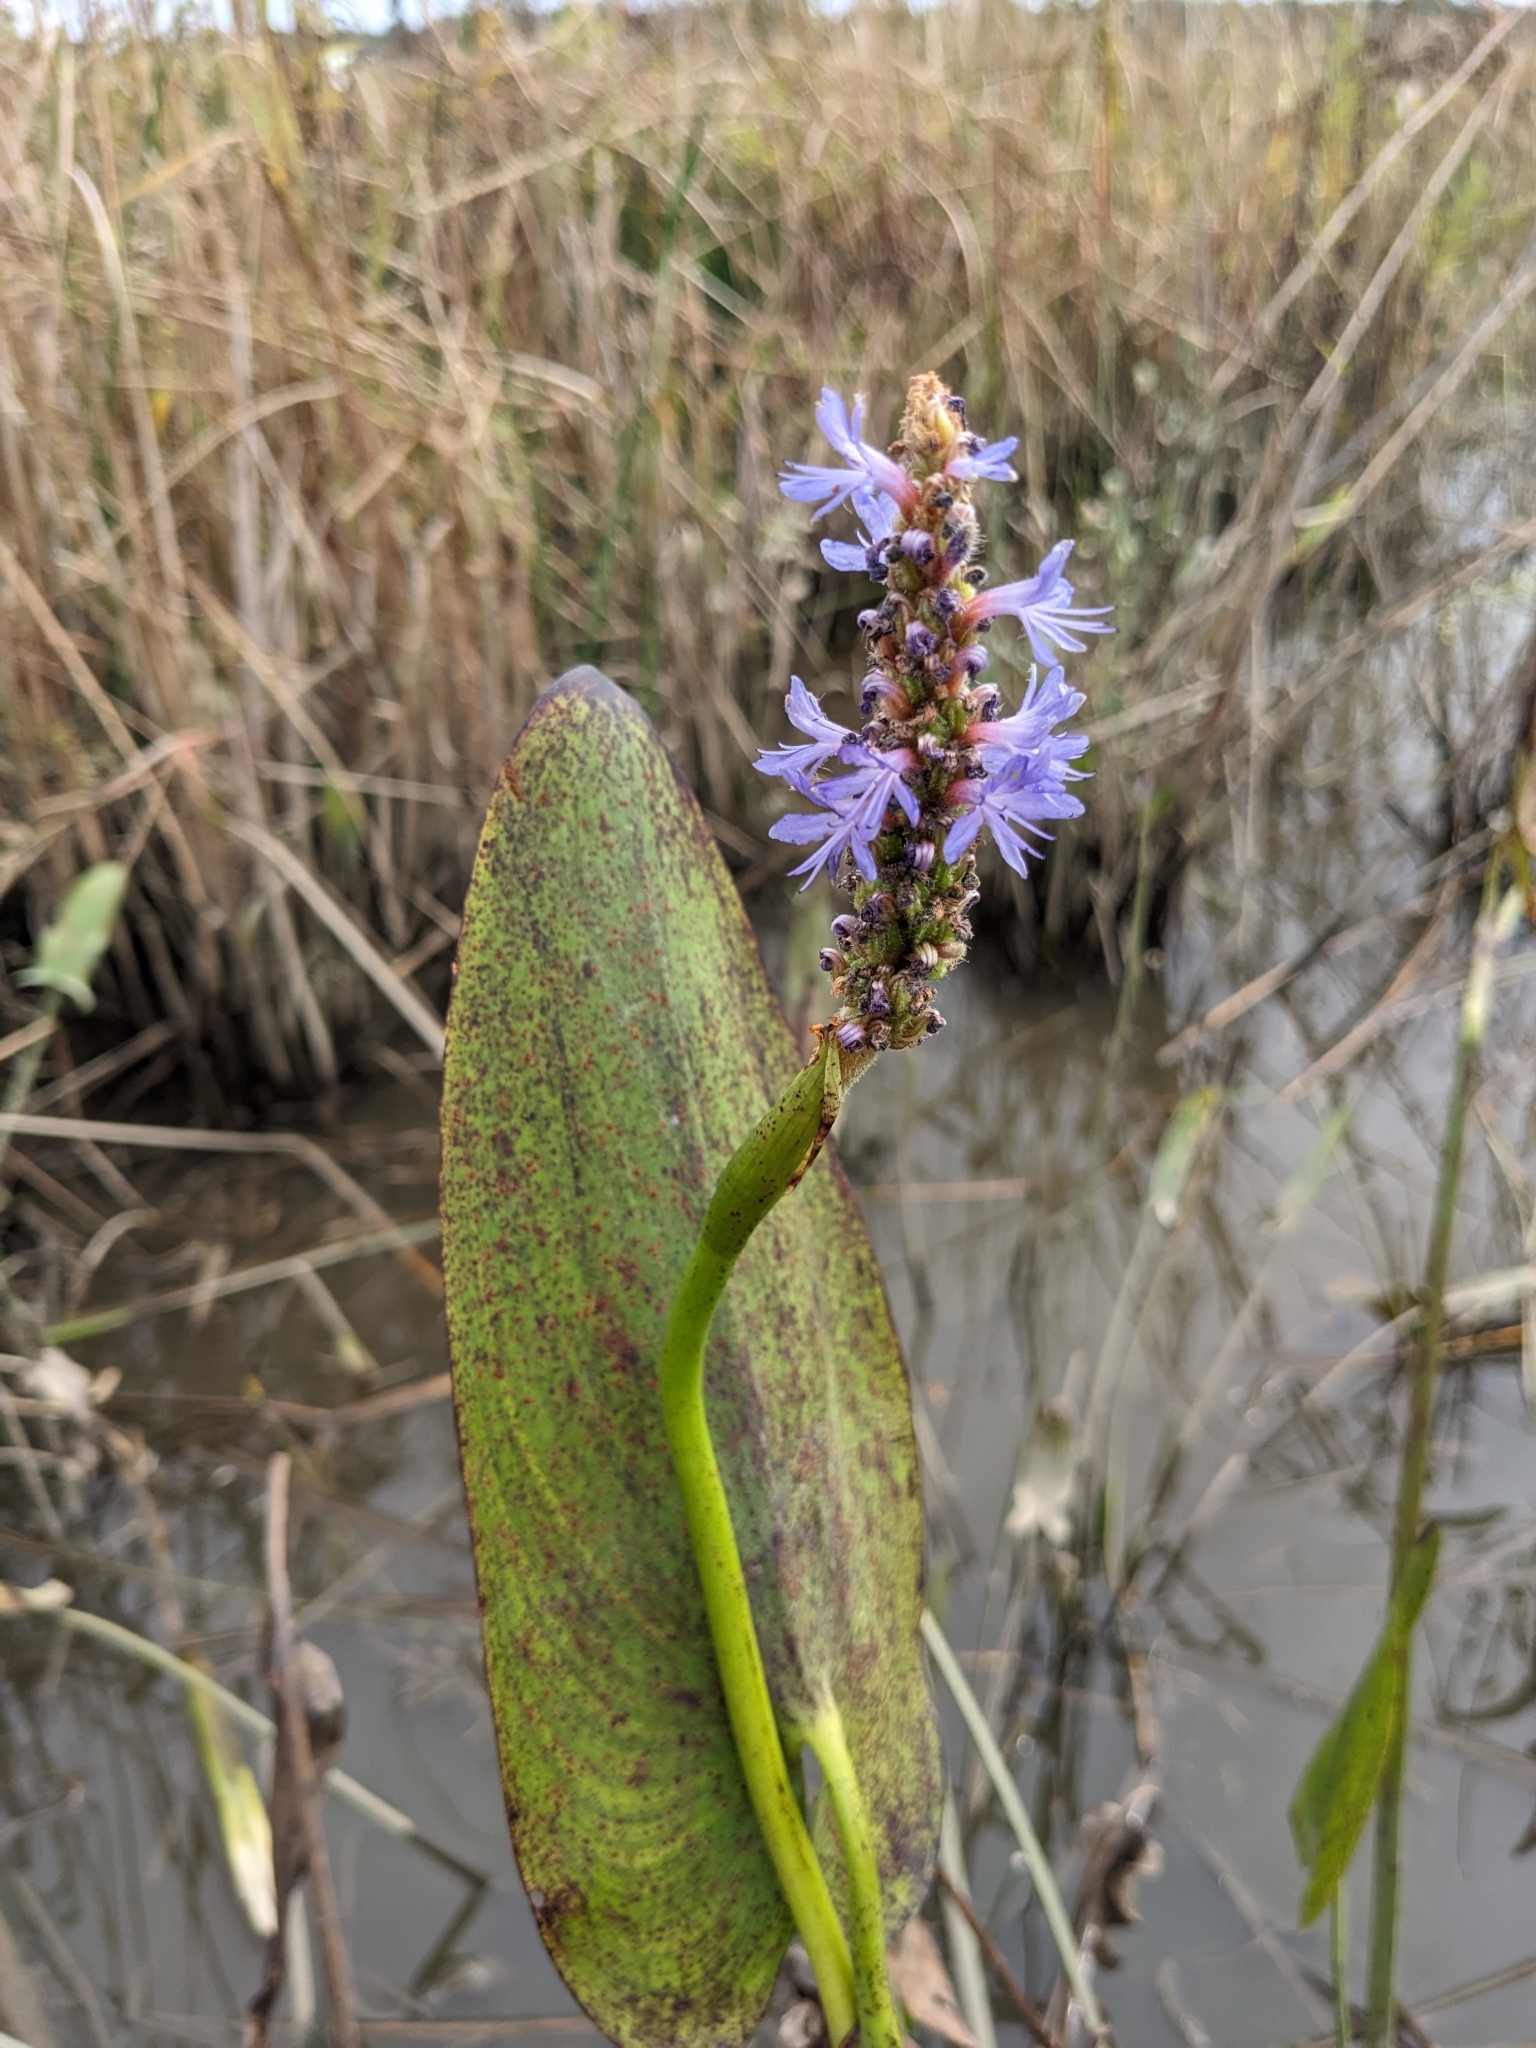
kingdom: Plantae
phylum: Tracheophyta
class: Liliopsida
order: Commelinales
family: Pontederiaceae
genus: Pontederia
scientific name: Pontederia cordata
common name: Pickerelweed
